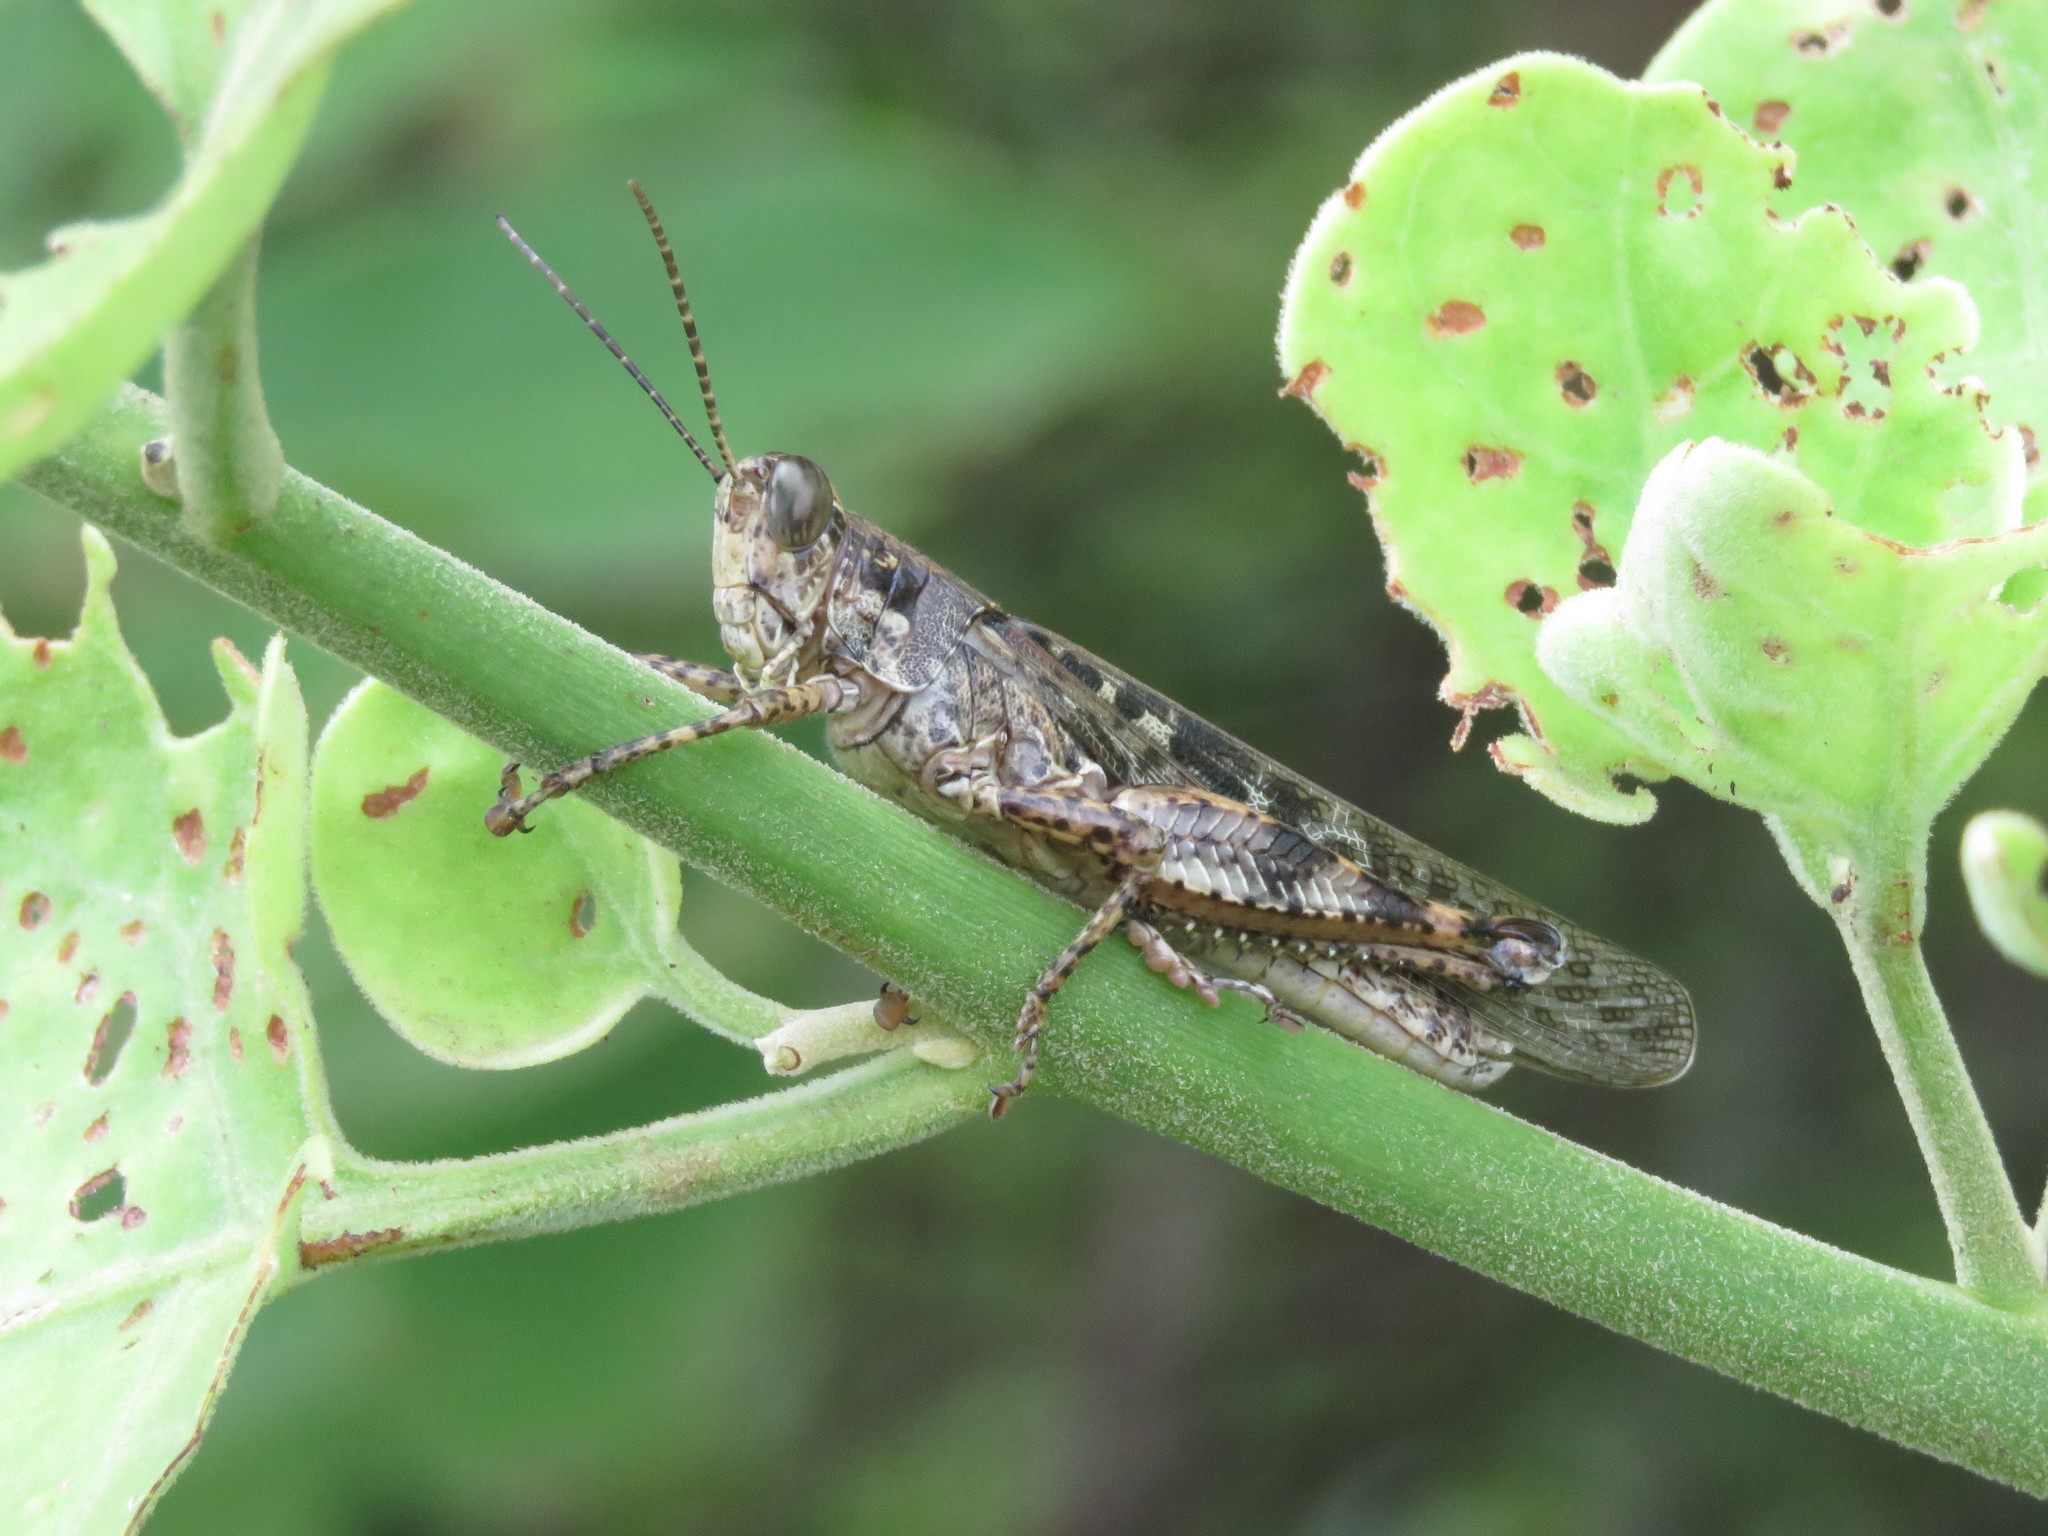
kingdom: Animalia
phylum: Arthropoda
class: Insecta
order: Orthoptera
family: Acrididae
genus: Schistocerca
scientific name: Schistocerca literosa
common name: Small painted locust
